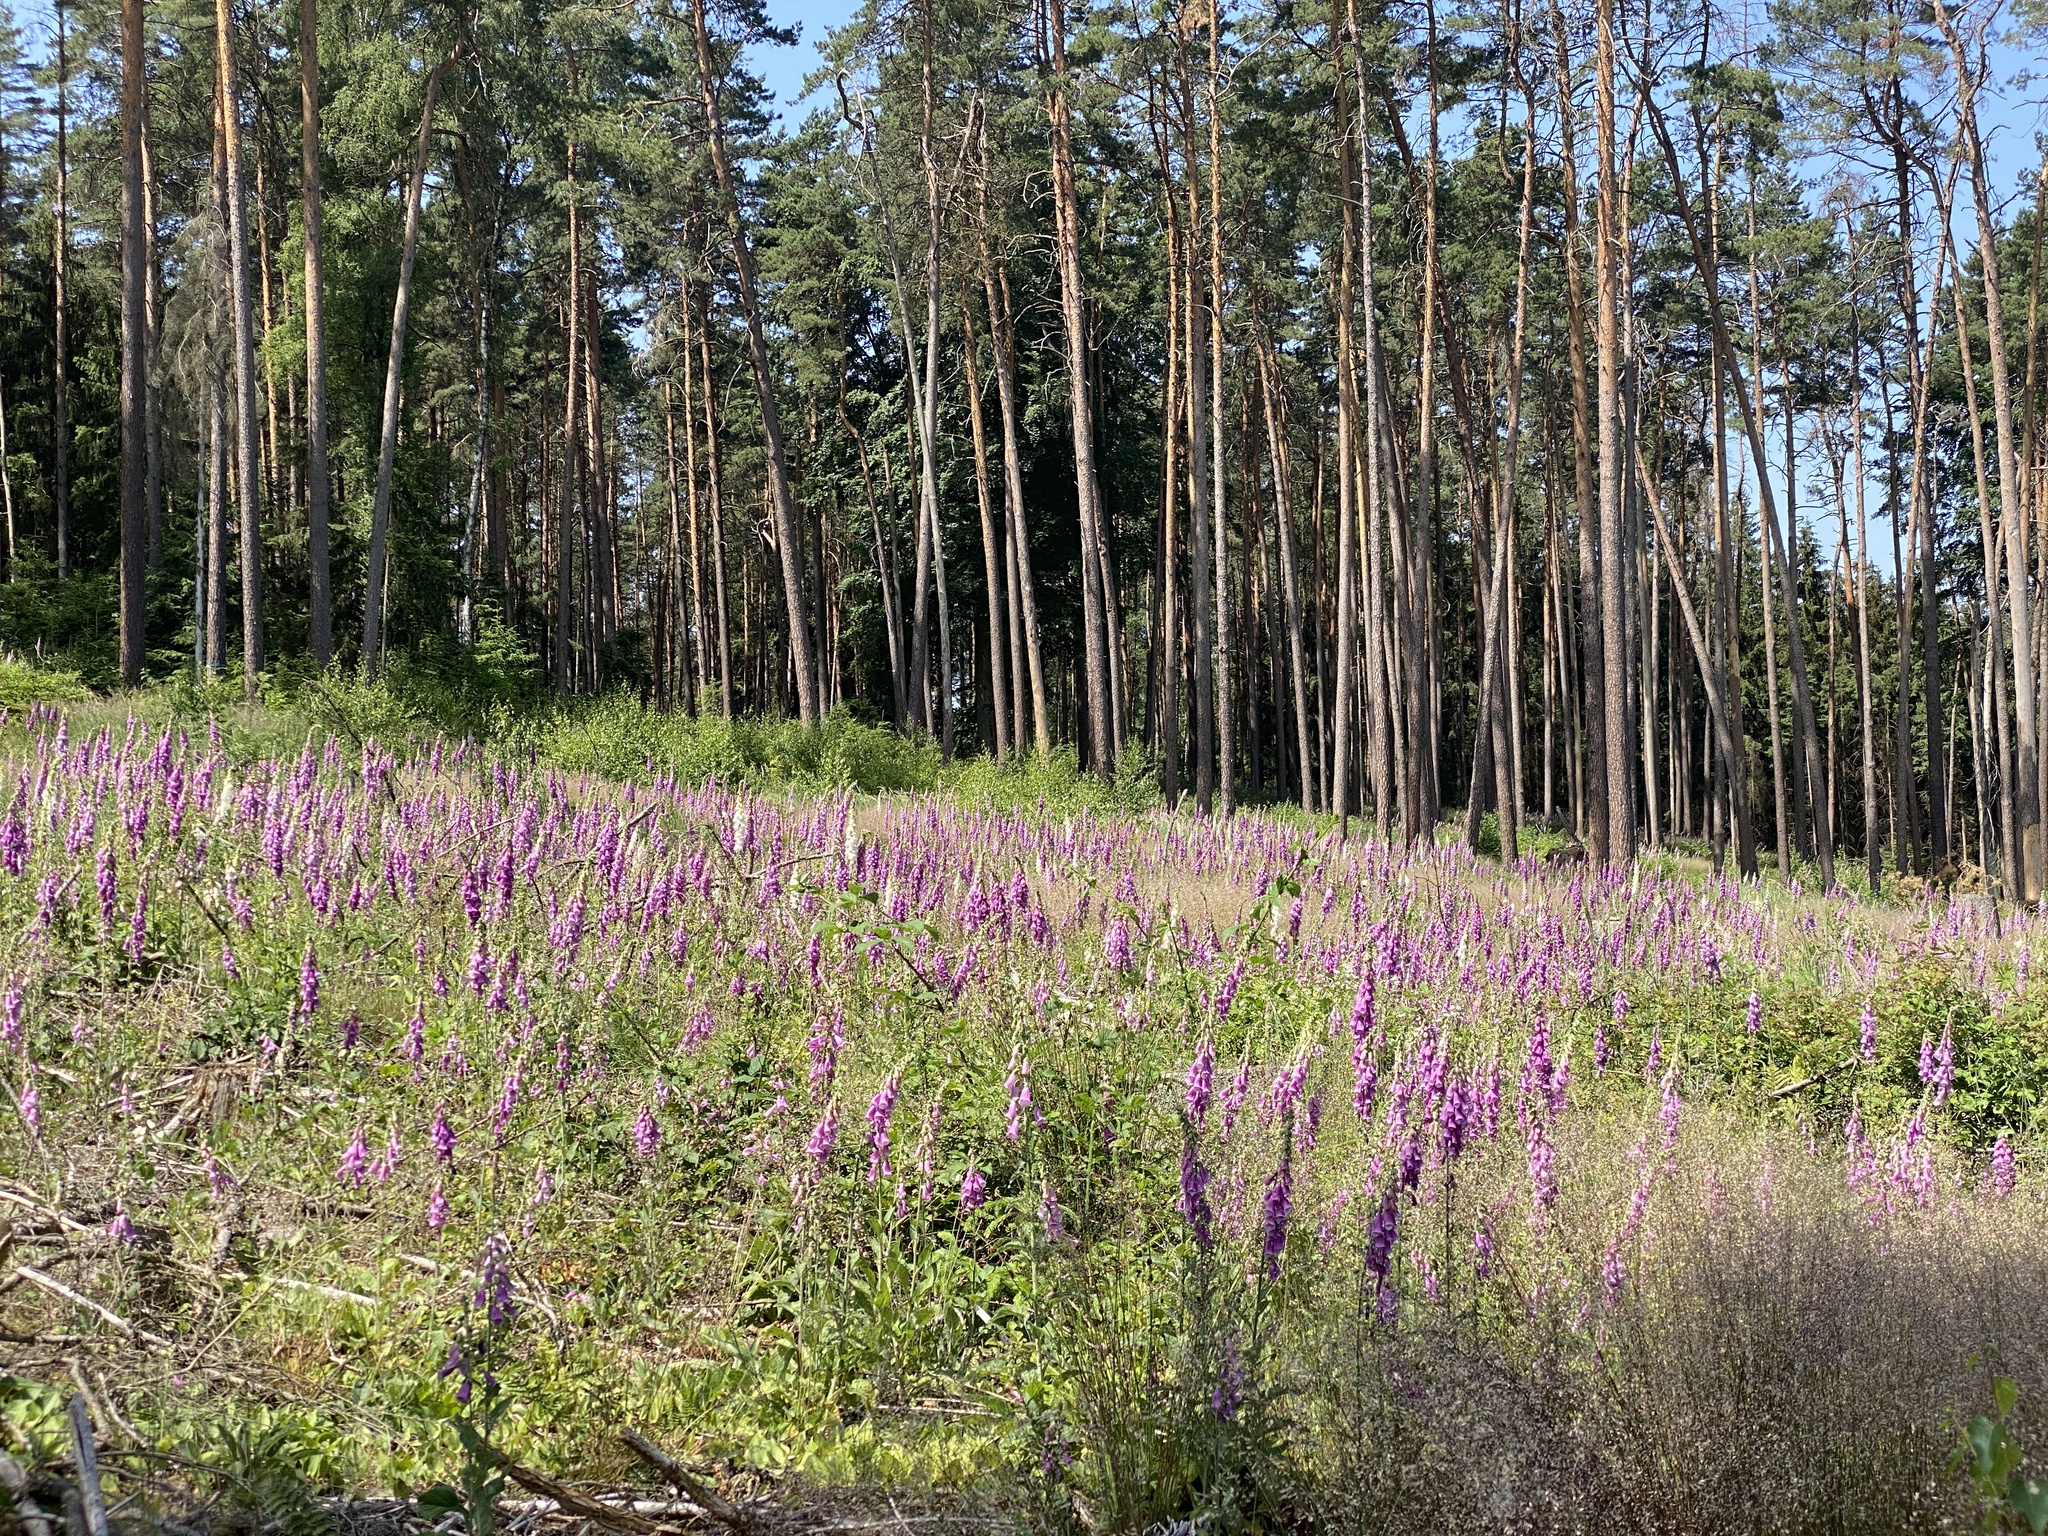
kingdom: Plantae
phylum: Tracheophyta
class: Magnoliopsida
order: Lamiales
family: Plantaginaceae
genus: Digitalis
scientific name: Digitalis purpurea
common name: Foxglove
